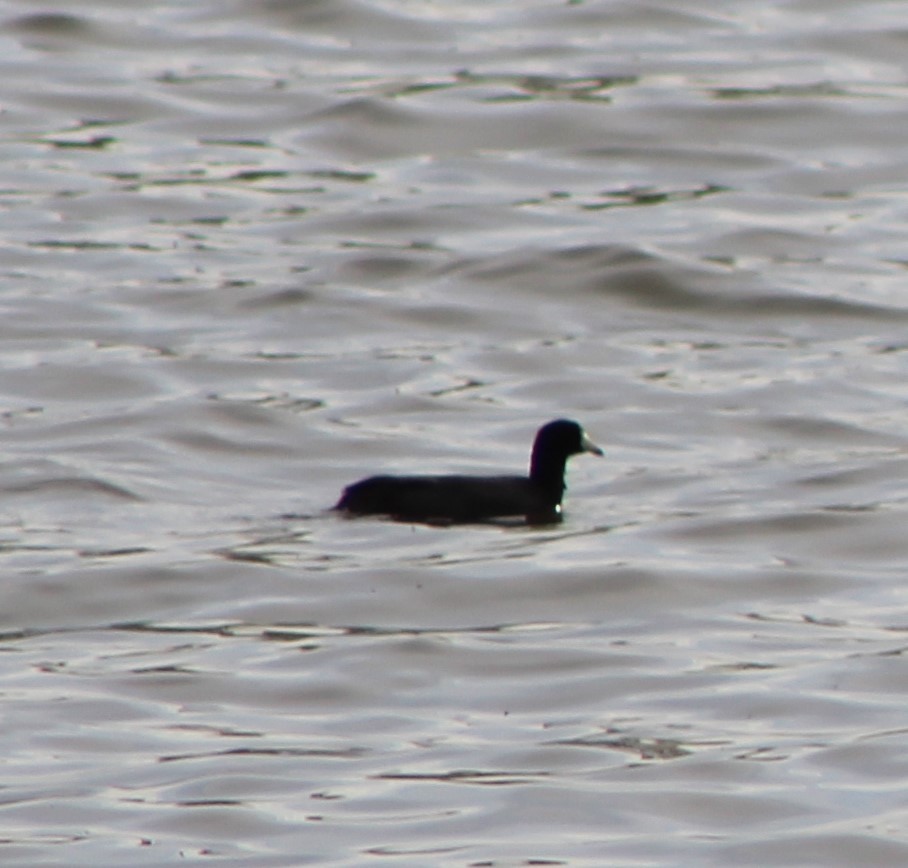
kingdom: Animalia
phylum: Chordata
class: Aves
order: Gruiformes
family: Rallidae
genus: Fulica
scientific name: Fulica americana
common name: American coot
